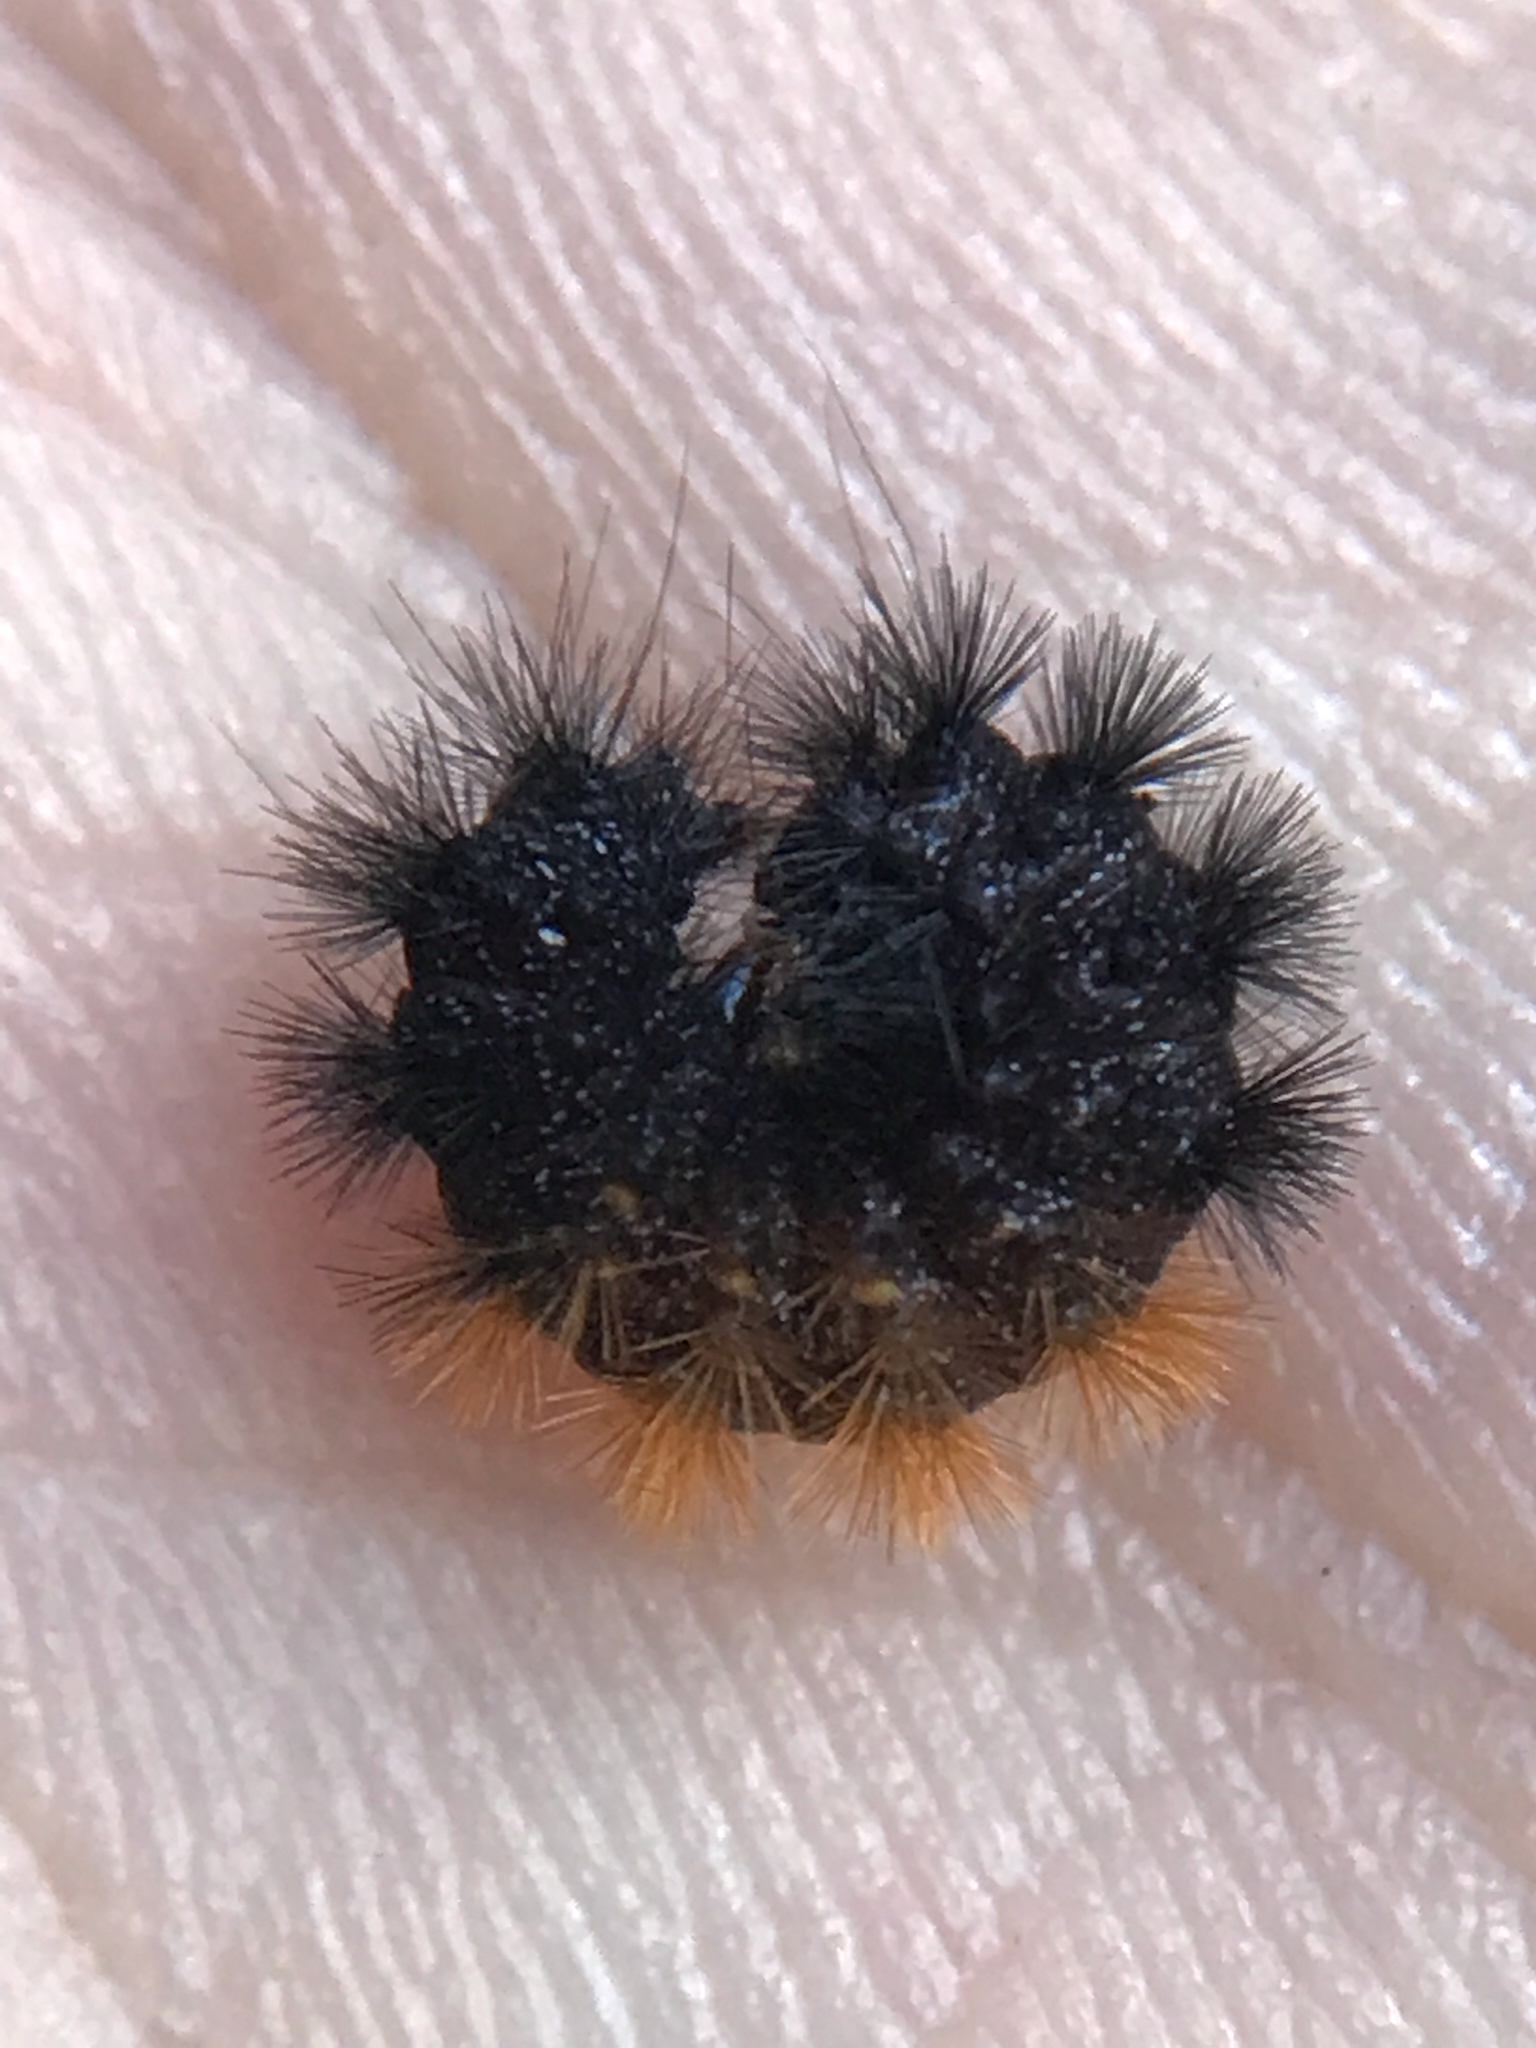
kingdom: Animalia
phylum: Arthropoda
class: Insecta
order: Lepidoptera
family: Erebidae
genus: Pyrrharctia
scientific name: Pyrrharctia isabella
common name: Isabella tiger moth
